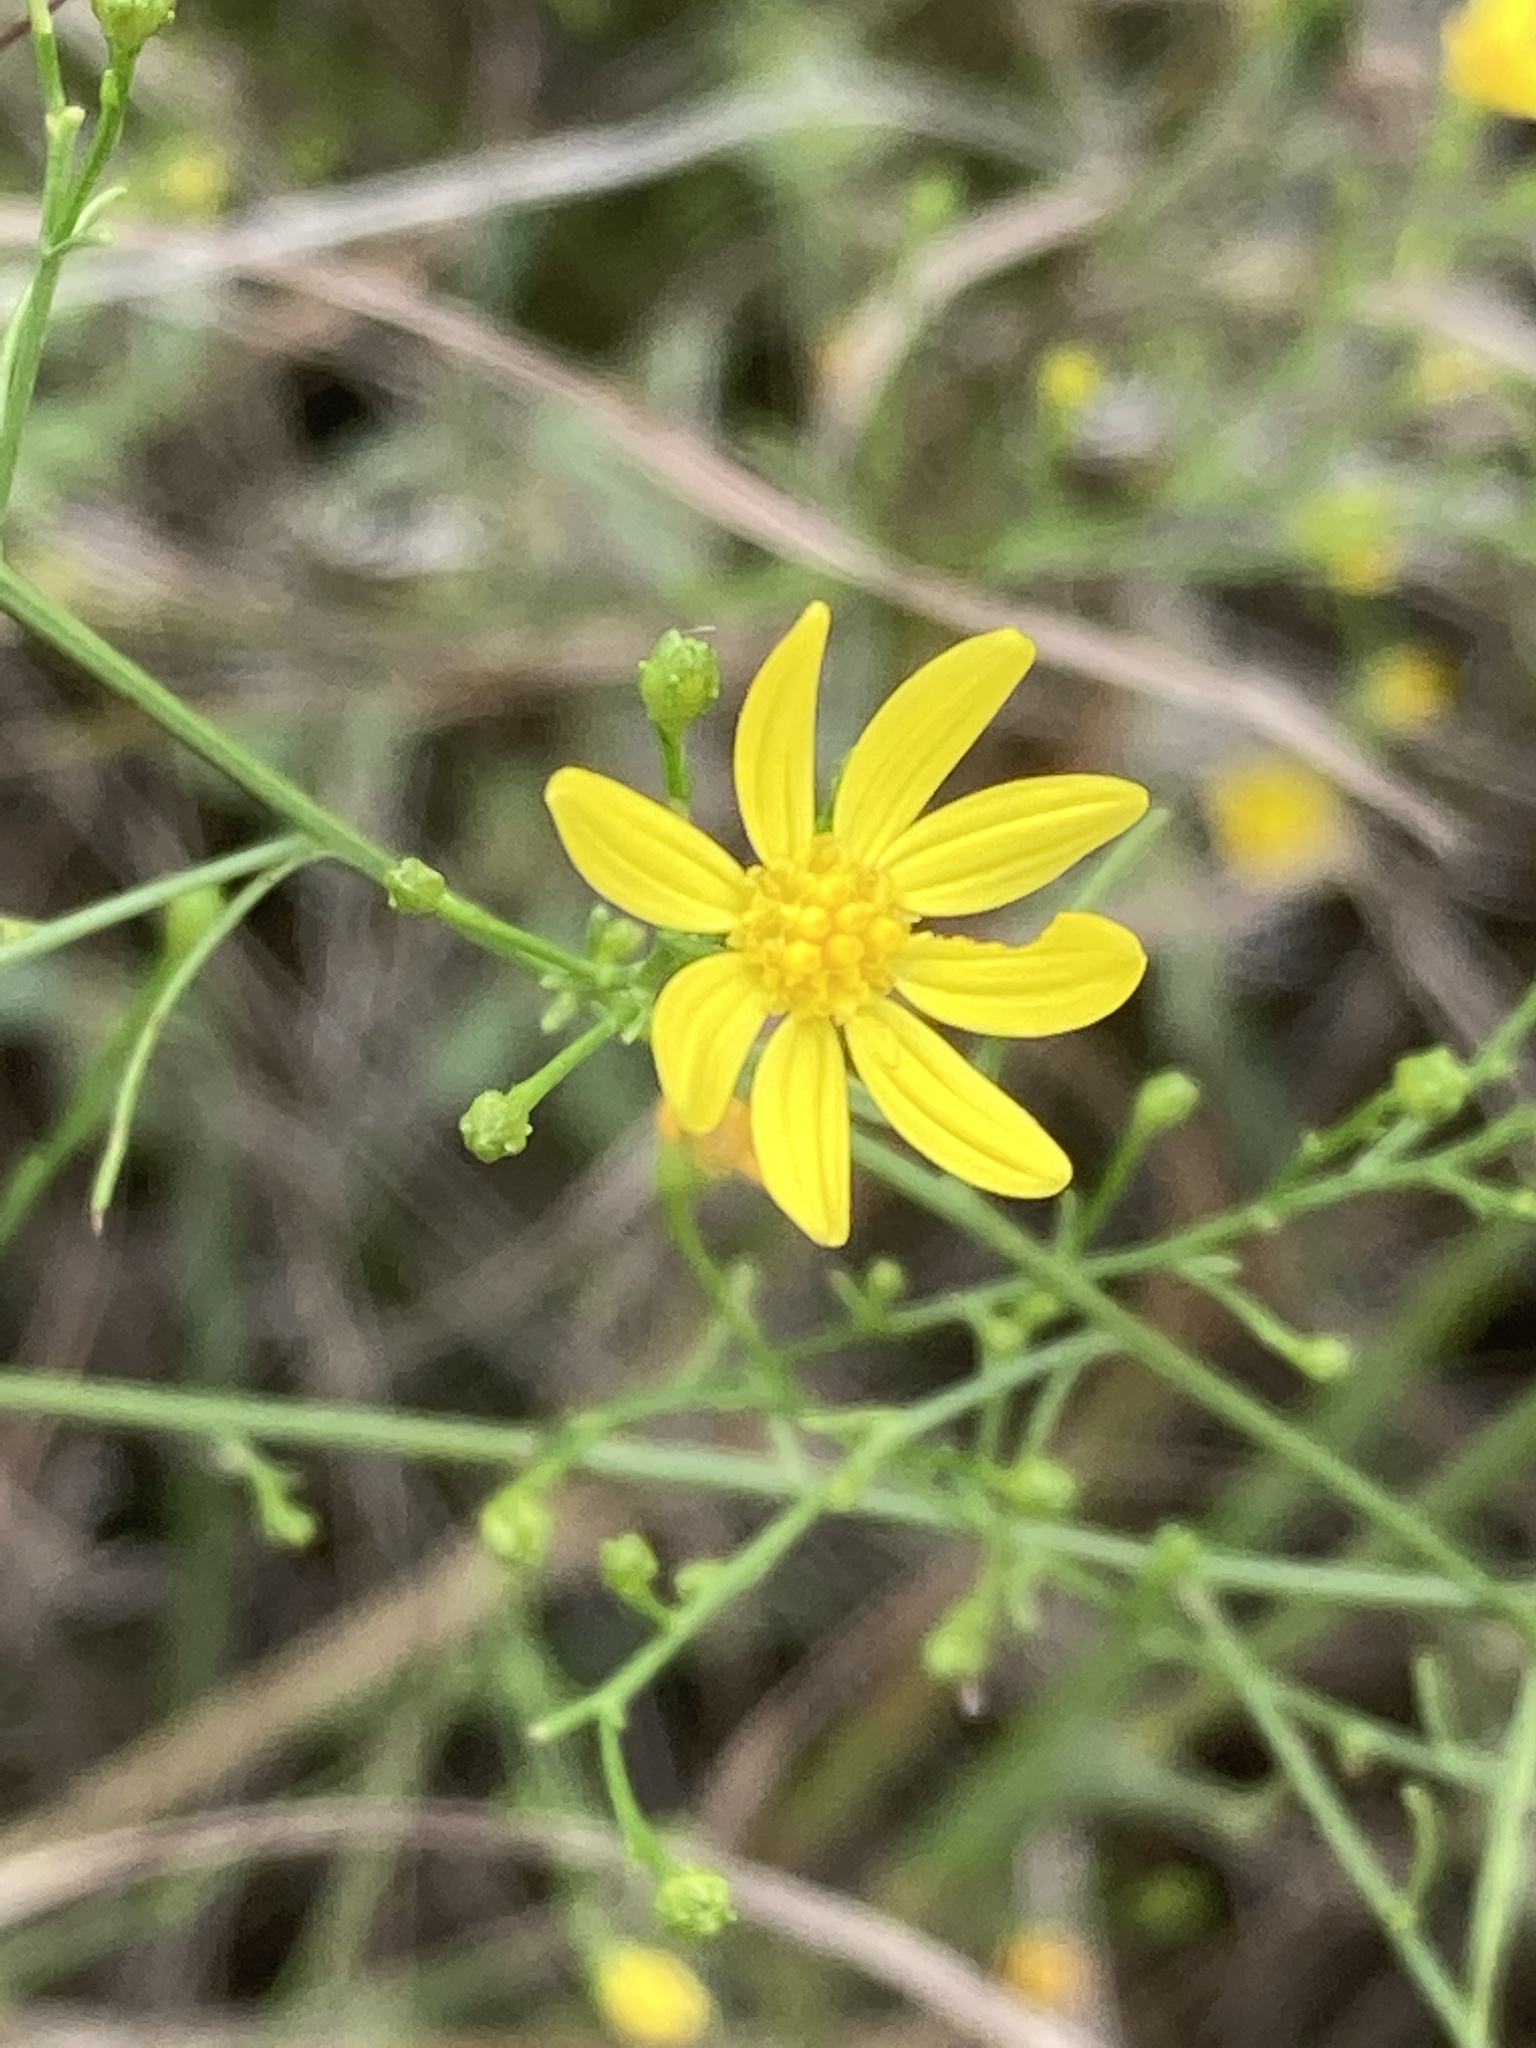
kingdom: Plantae
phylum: Tracheophyta
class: Magnoliopsida
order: Asterales
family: Asteraceae
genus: Gutierrezia
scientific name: Gutierrezia texana
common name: Texas snakeweed
